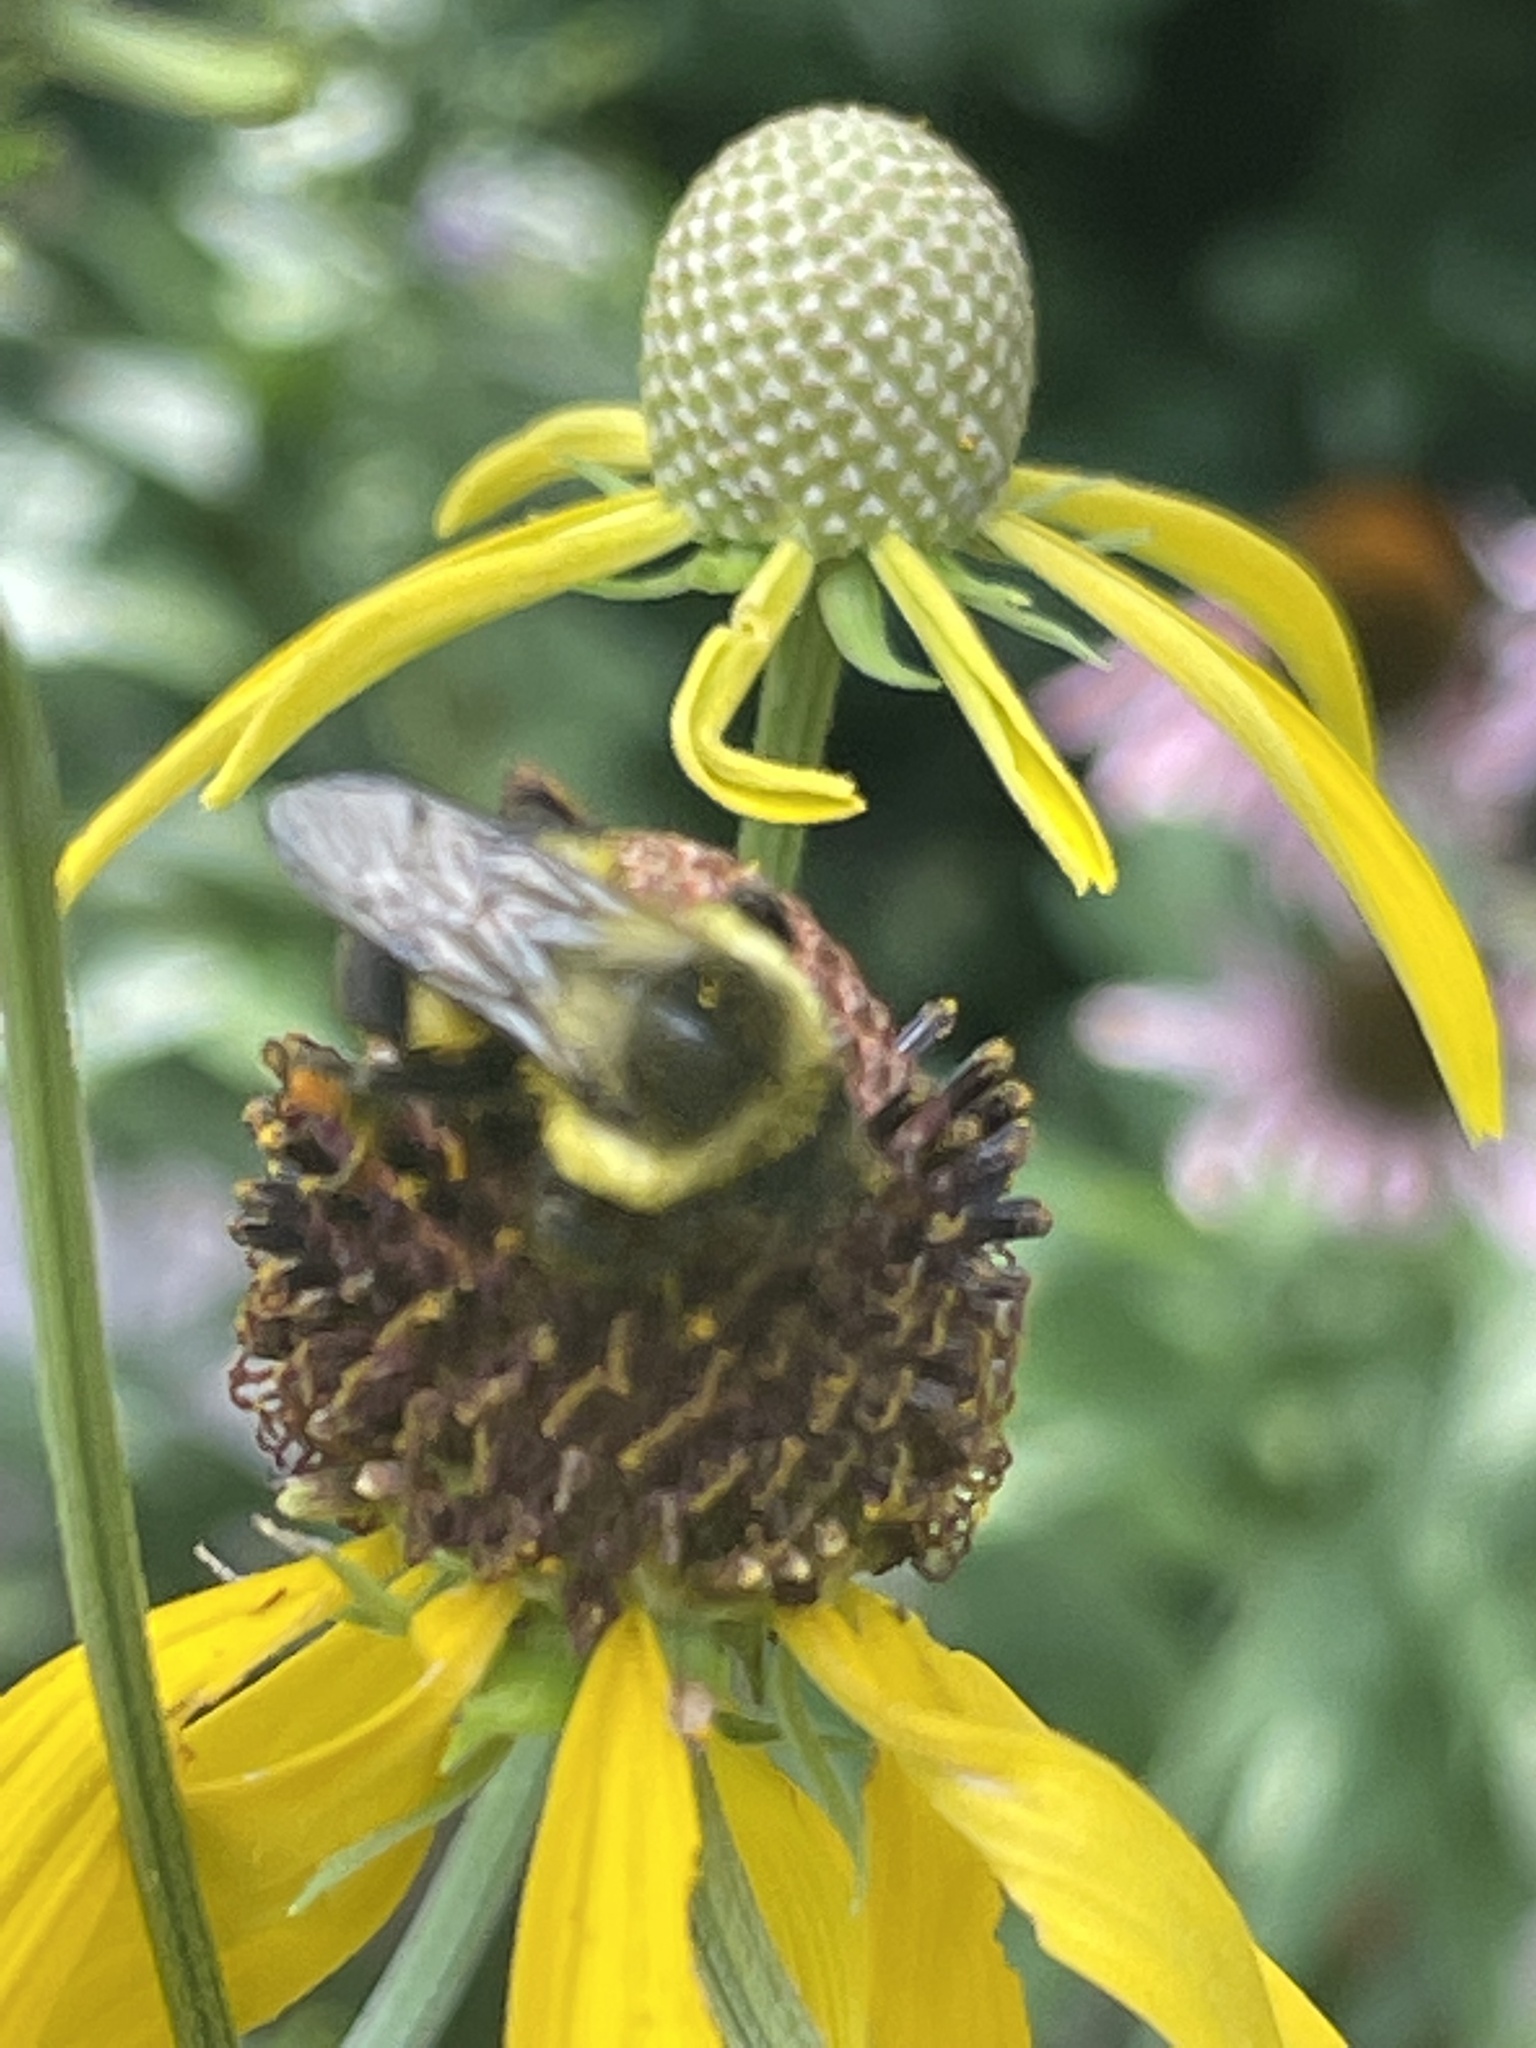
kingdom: Animalia
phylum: Arthropoda
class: Insecta
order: Hymenoptera
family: Apidae
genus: Bombus
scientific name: Bombus impatiens
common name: Common eastern bumble bee
